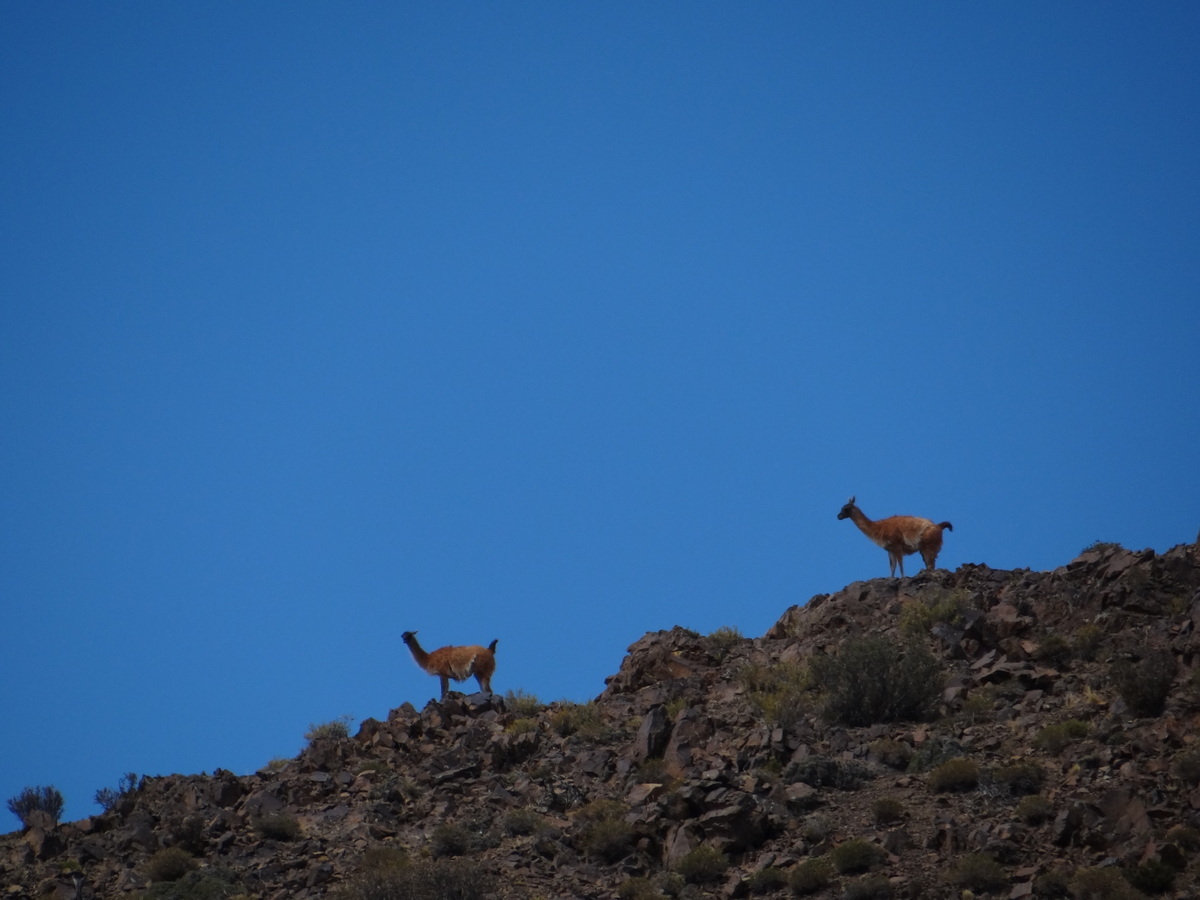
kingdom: Animalia
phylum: Chordata
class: Mammalia
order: Artiodactyla
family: Camelidae
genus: Lama
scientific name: Lama glama
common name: Llama
